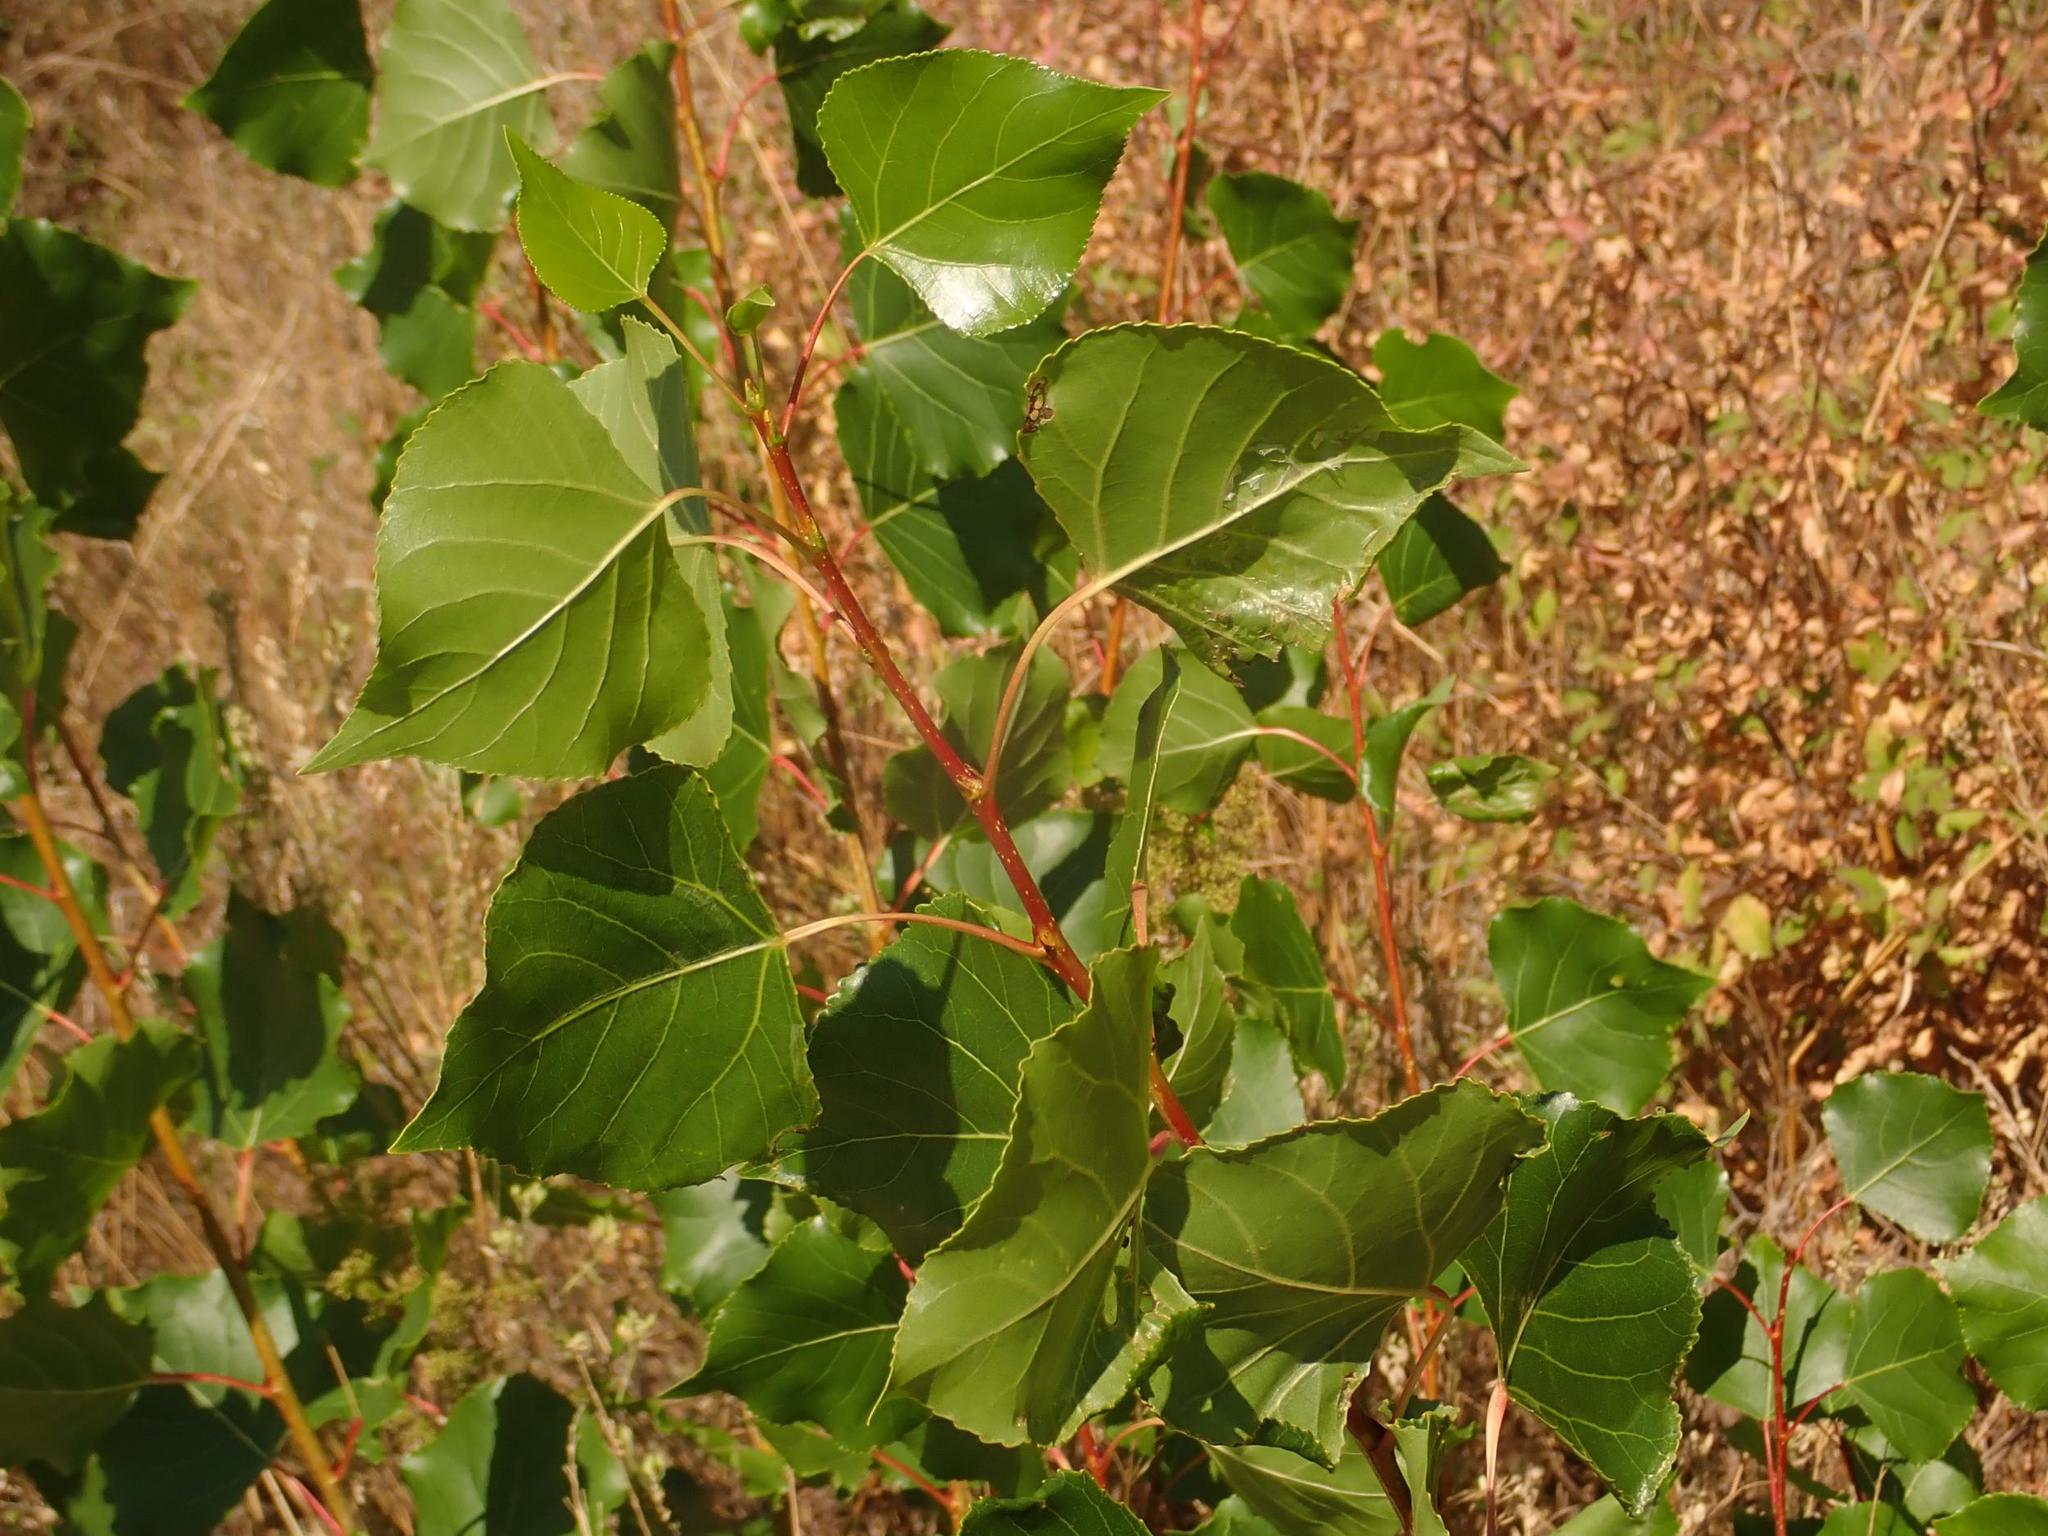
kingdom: Plantae
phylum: Tracheophyta
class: Magnoliopsida
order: Malpighiales
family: Salicaceae
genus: Populus
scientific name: Populus nigra
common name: Black poplar
